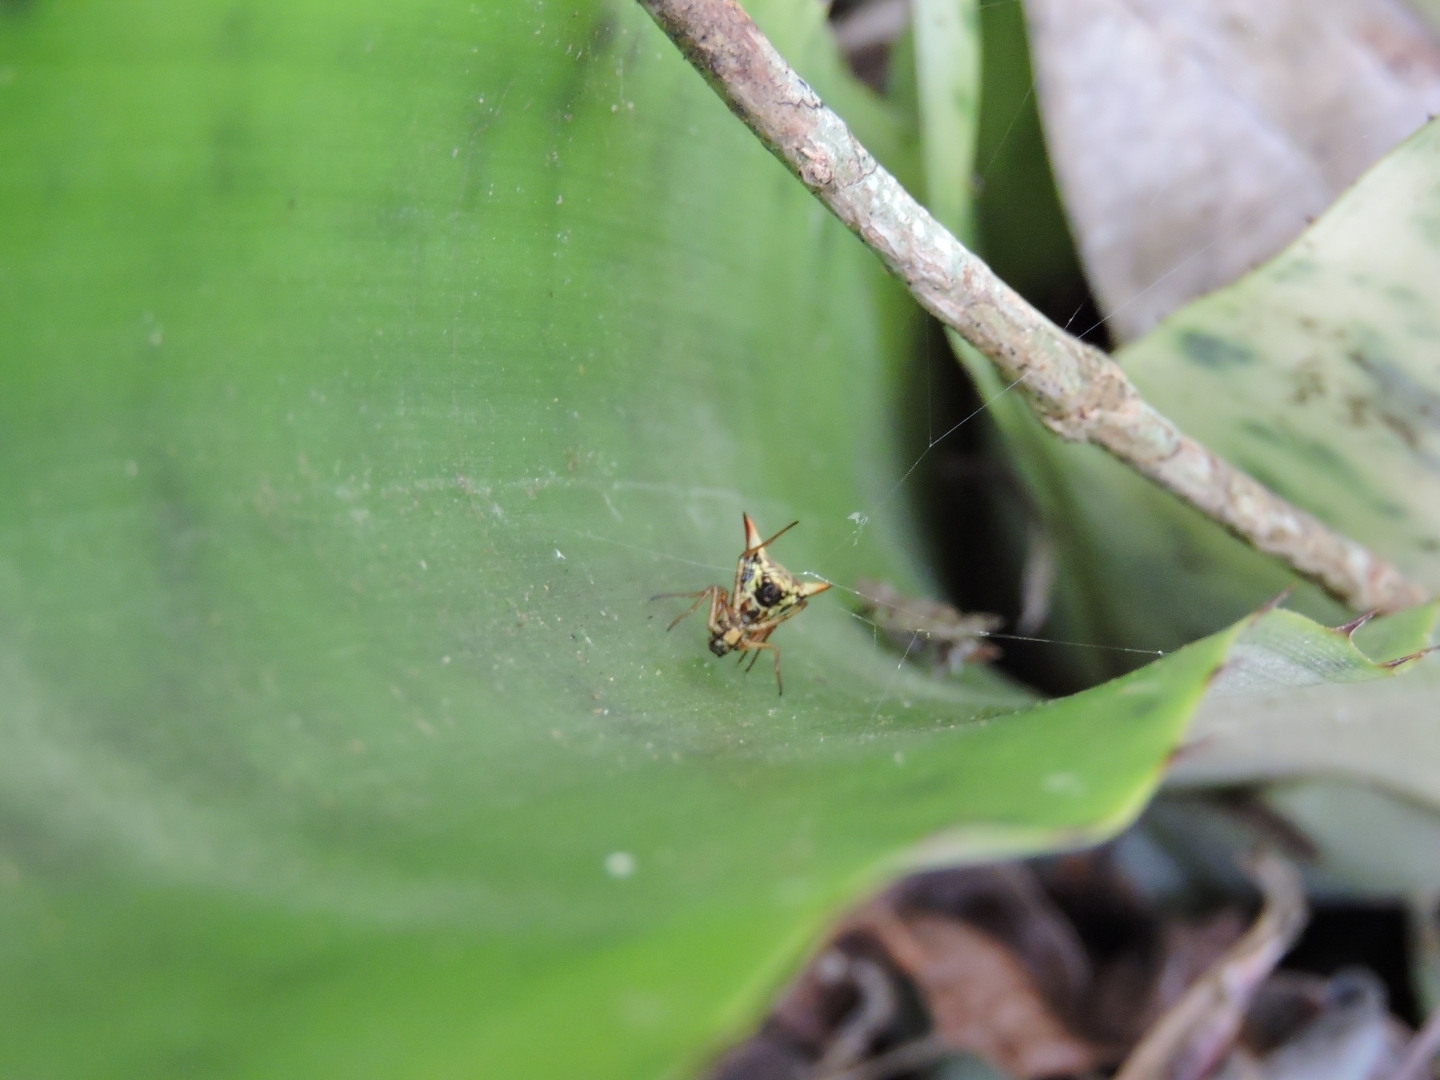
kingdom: Animalia
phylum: Arthropoda
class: Arachnida
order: Araneae
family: Araneidae
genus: Micrathena
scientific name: Micrathena annulata
